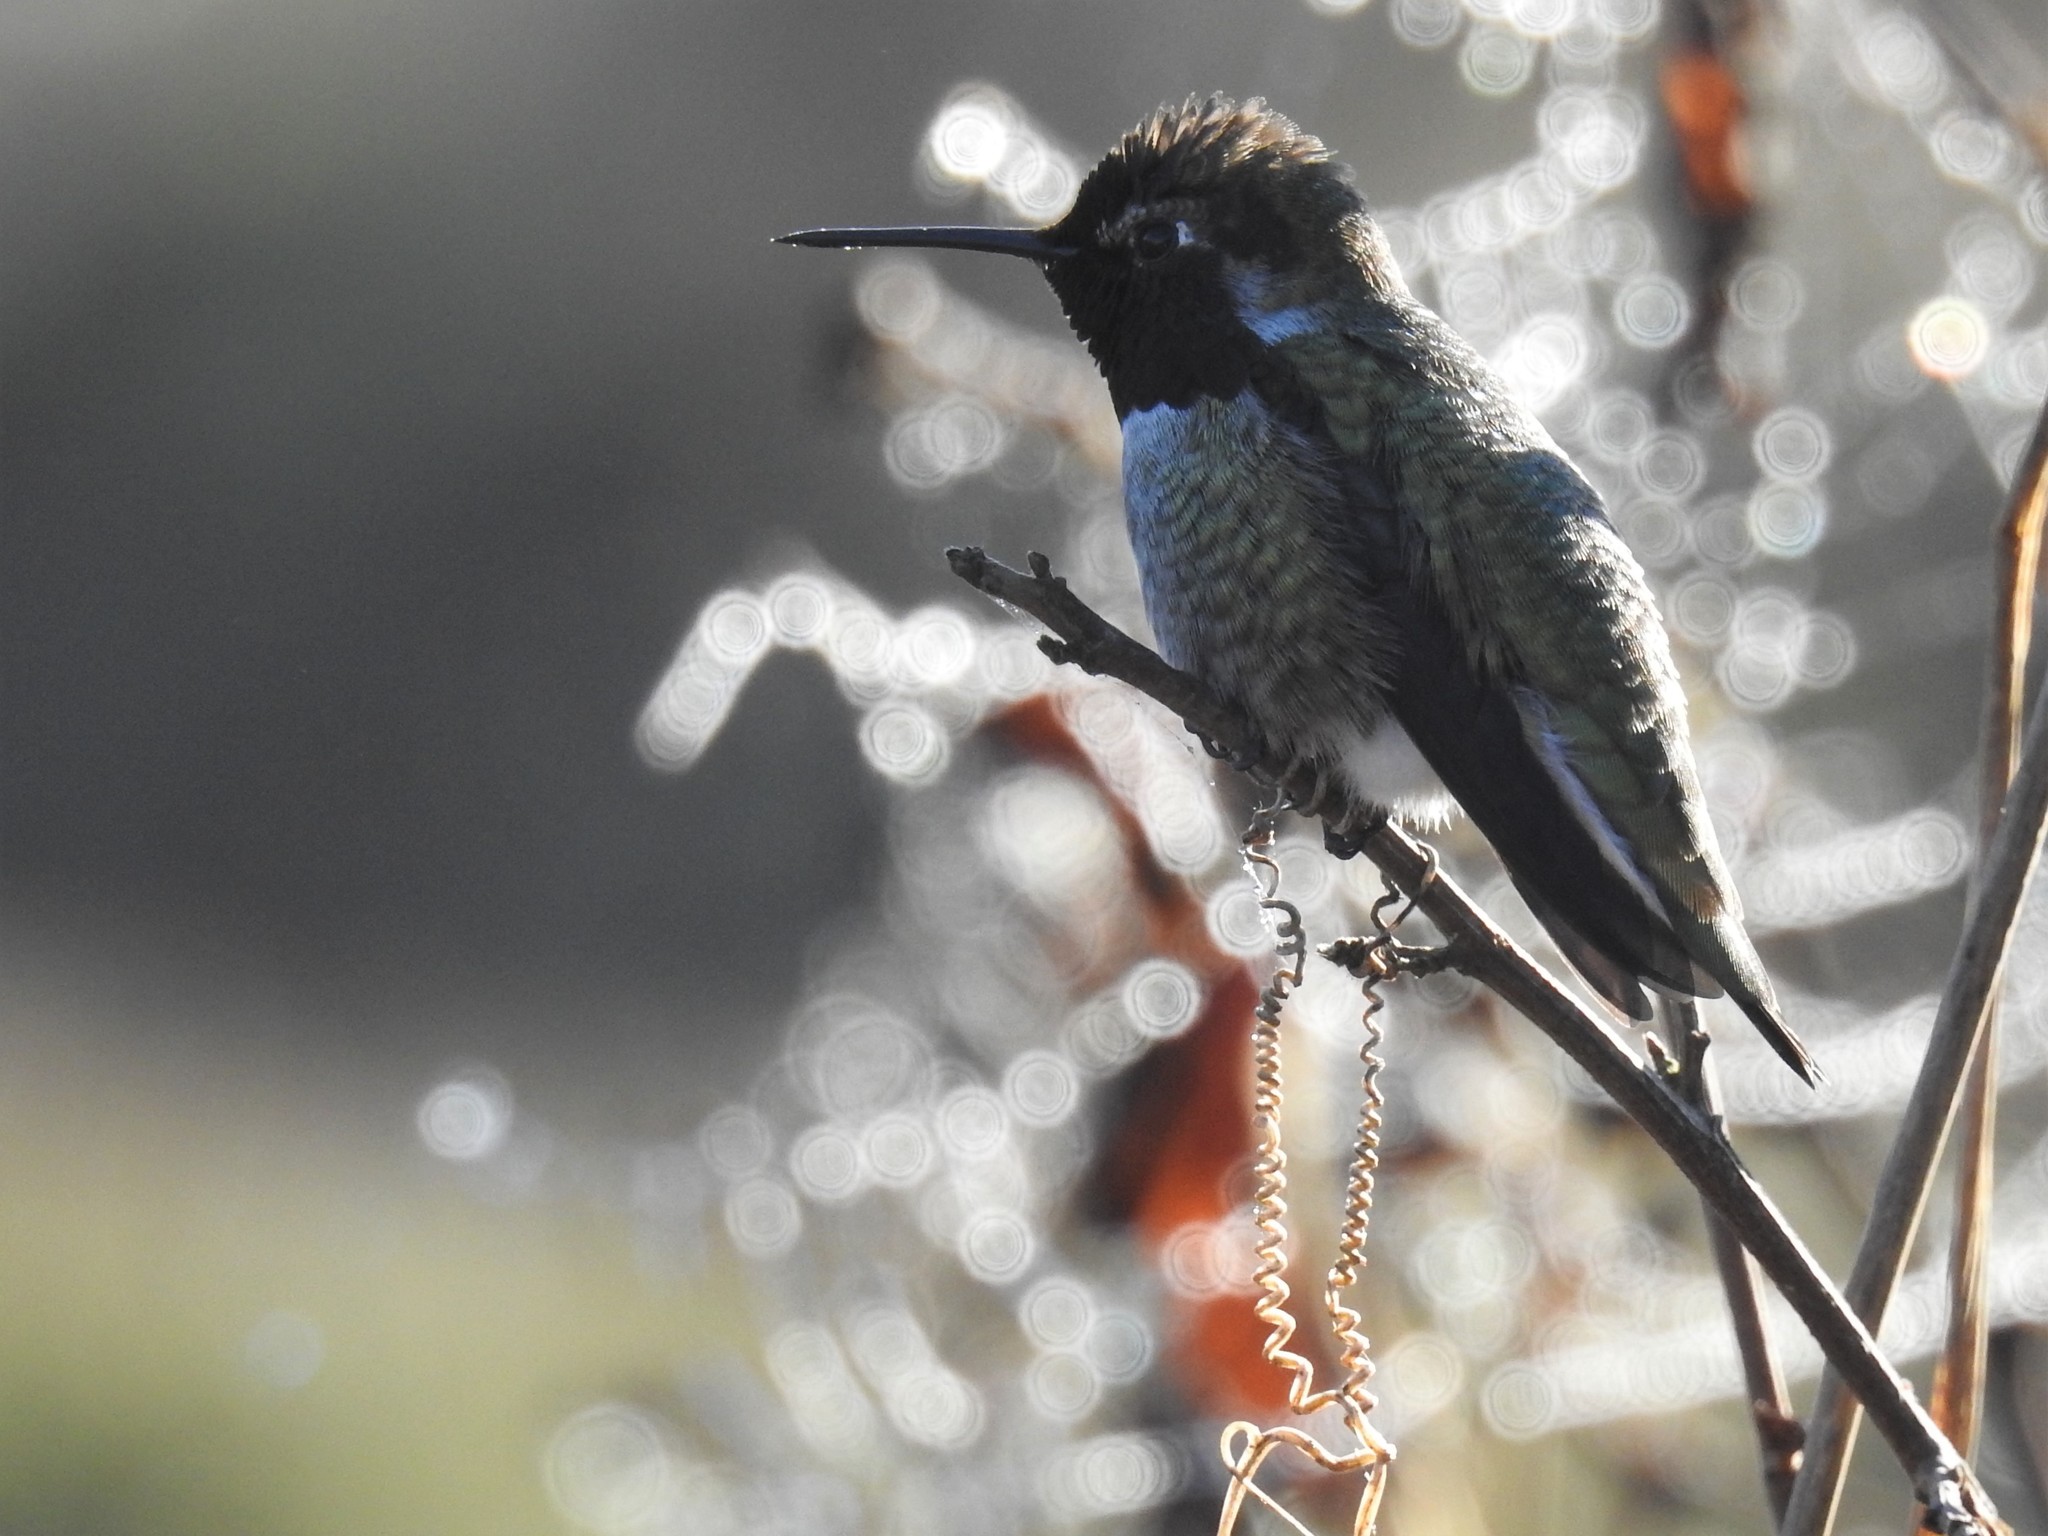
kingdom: Animalia
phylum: Chordata
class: Aves
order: Apodiformes
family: Trochilidae
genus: Calypte
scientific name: Calypte anna
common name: Anna's hummingbird
